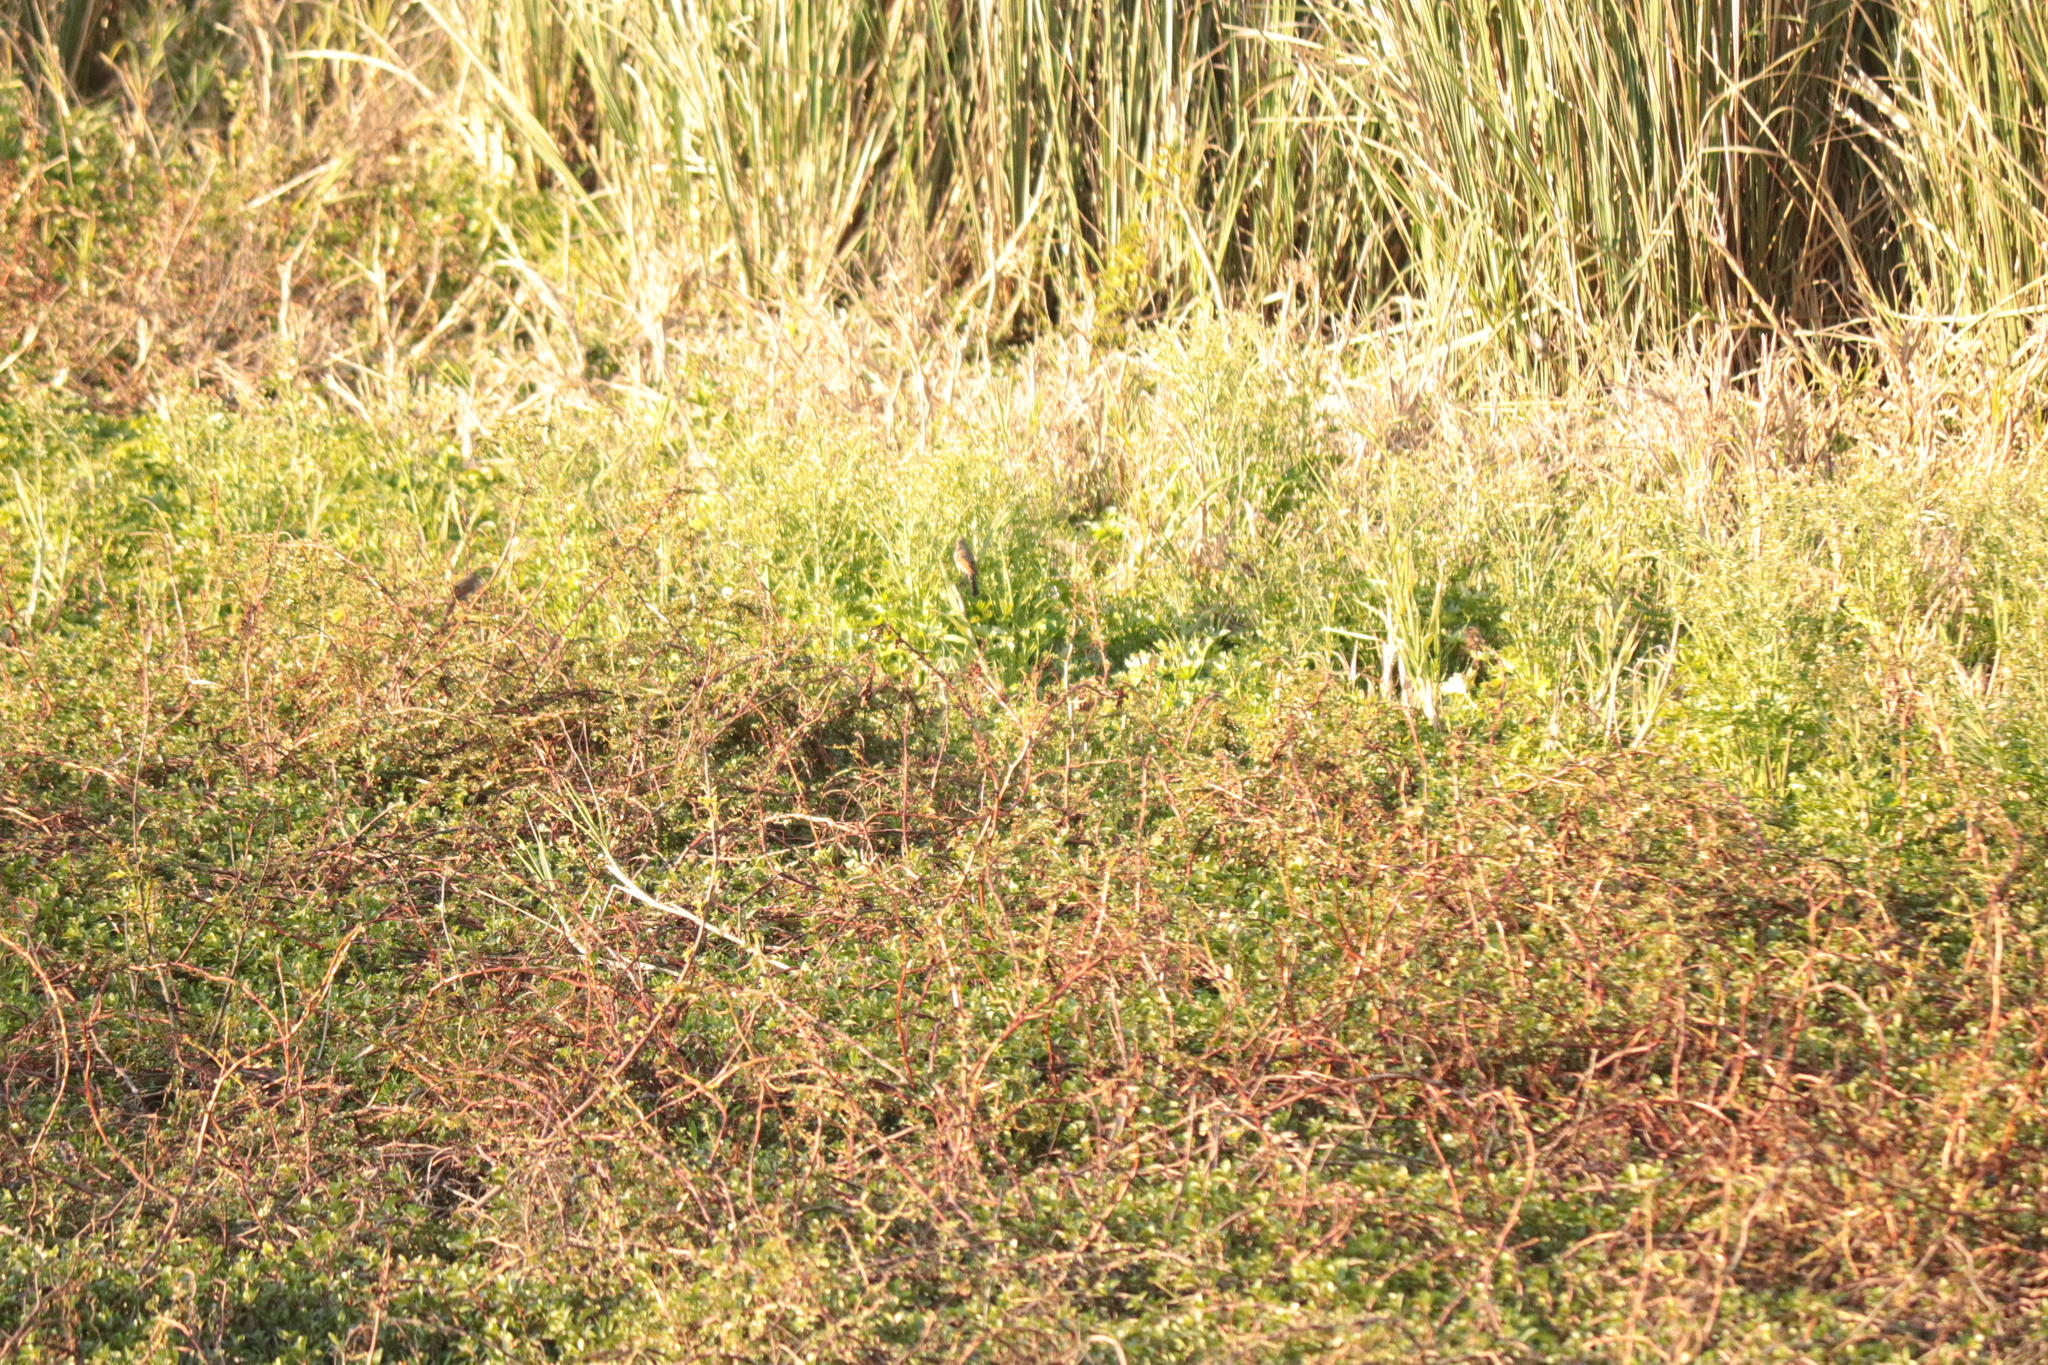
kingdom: Animalia
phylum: Chordata
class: Aves
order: Passeriformes
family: Icteridae
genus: Agelaioides
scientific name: Agelaioides badius
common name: Baywing
